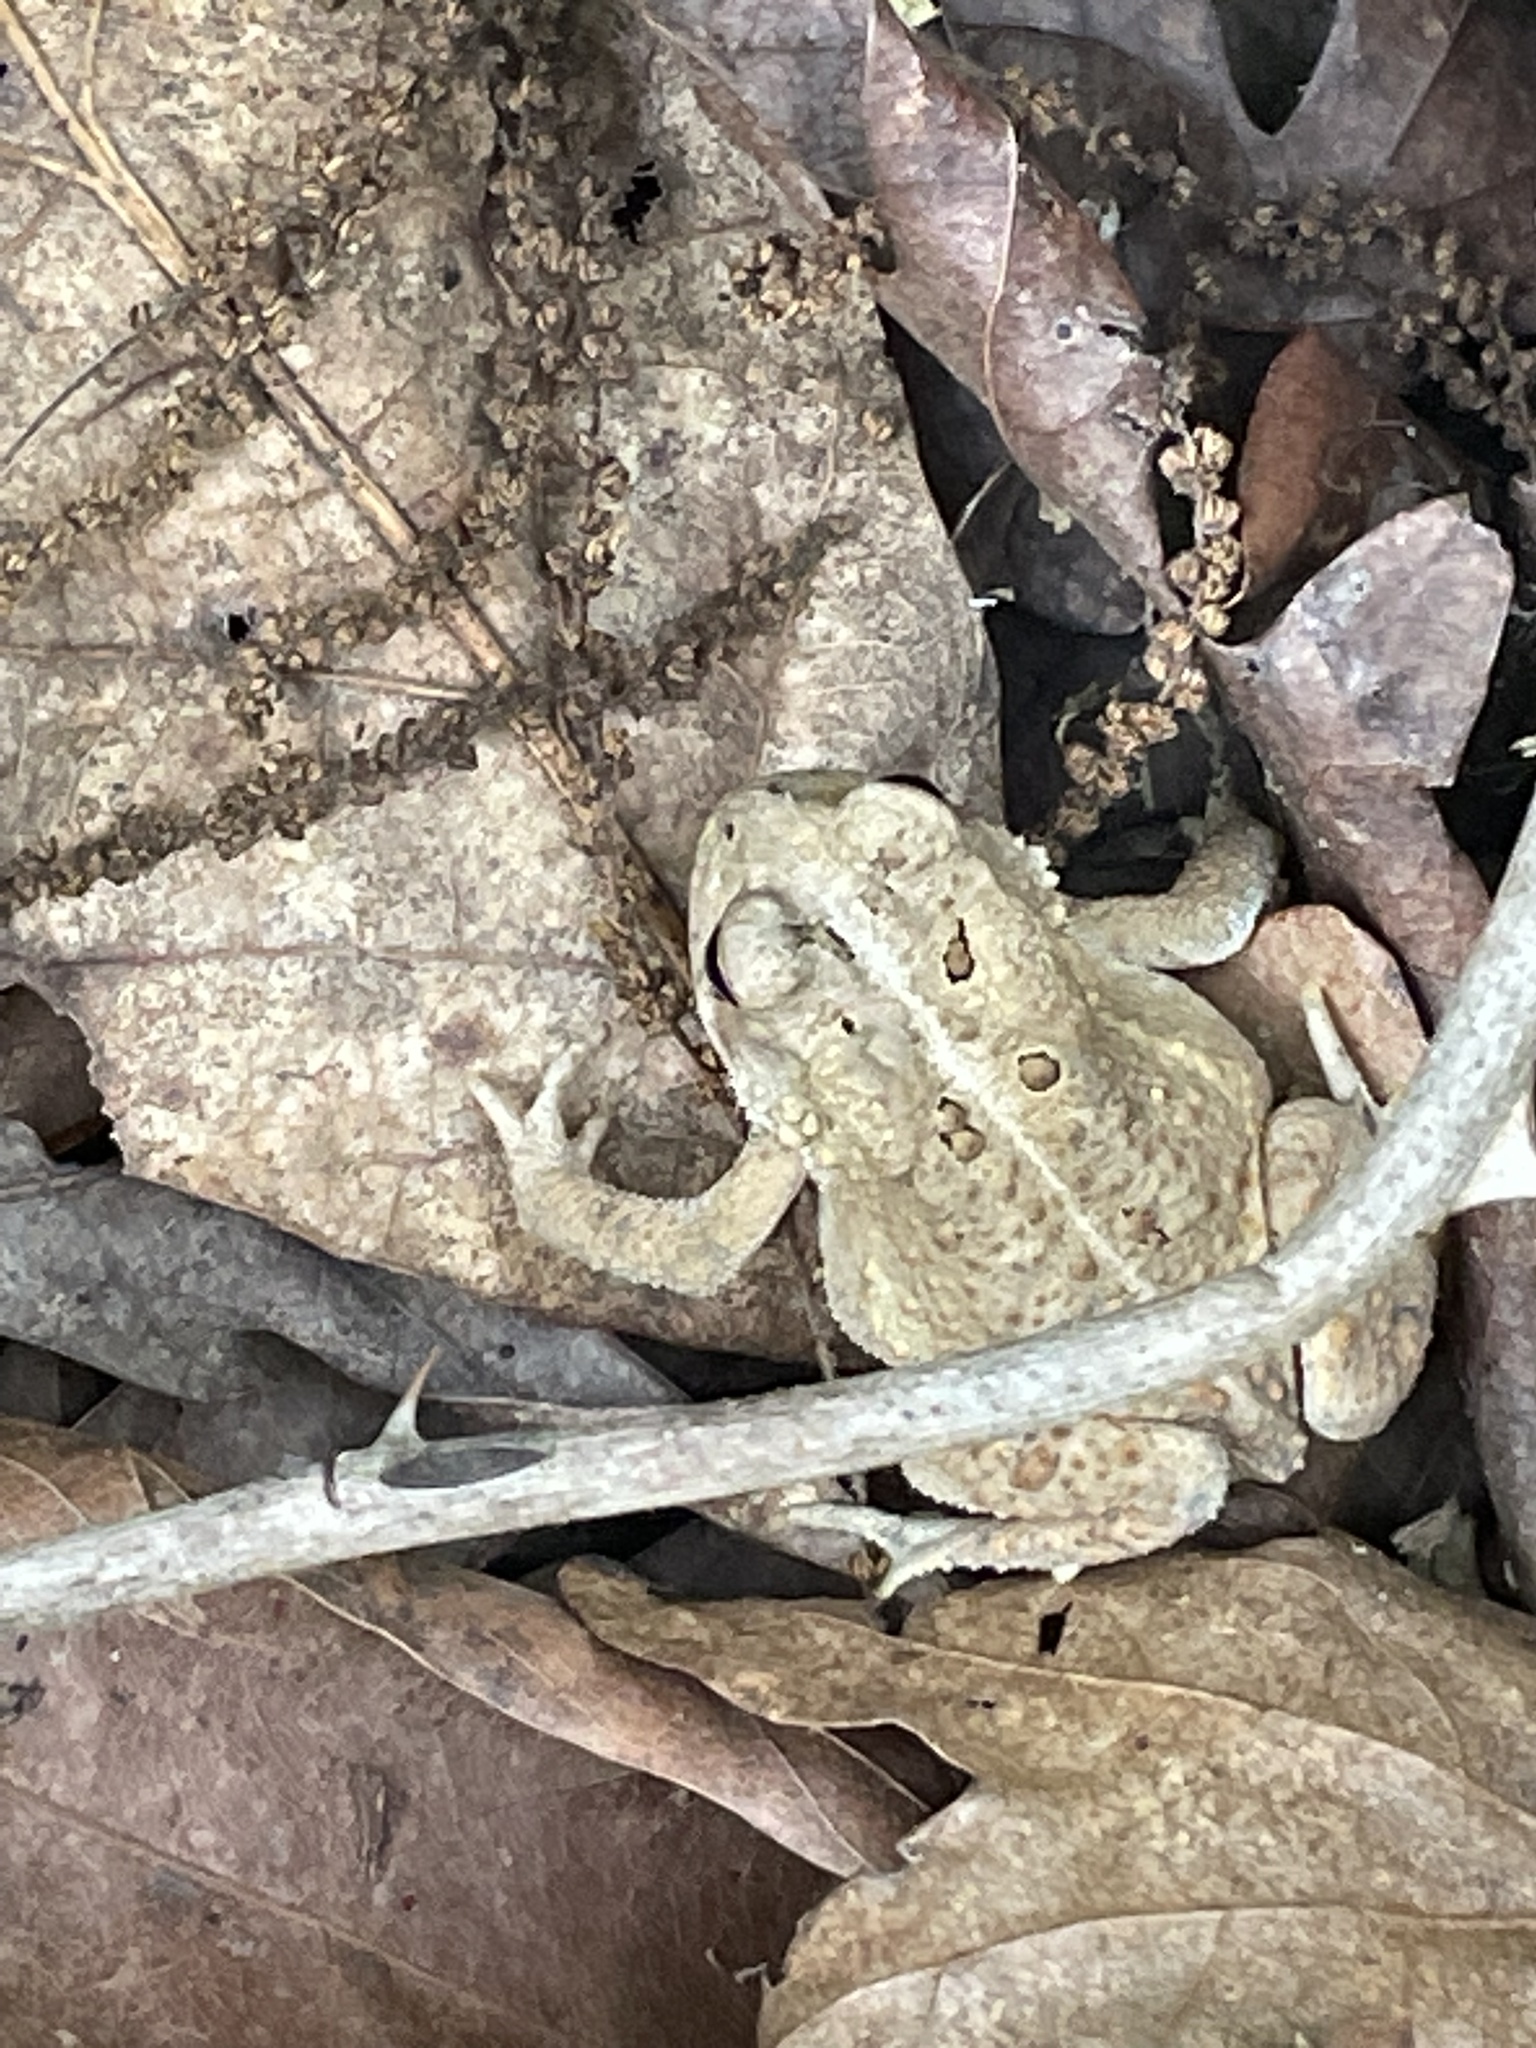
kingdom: Animalia
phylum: Chordata
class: Amphibia
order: Anura
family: Bufonidae
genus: Anaxyrus
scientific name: Anaxyrus americanus
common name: American toad
